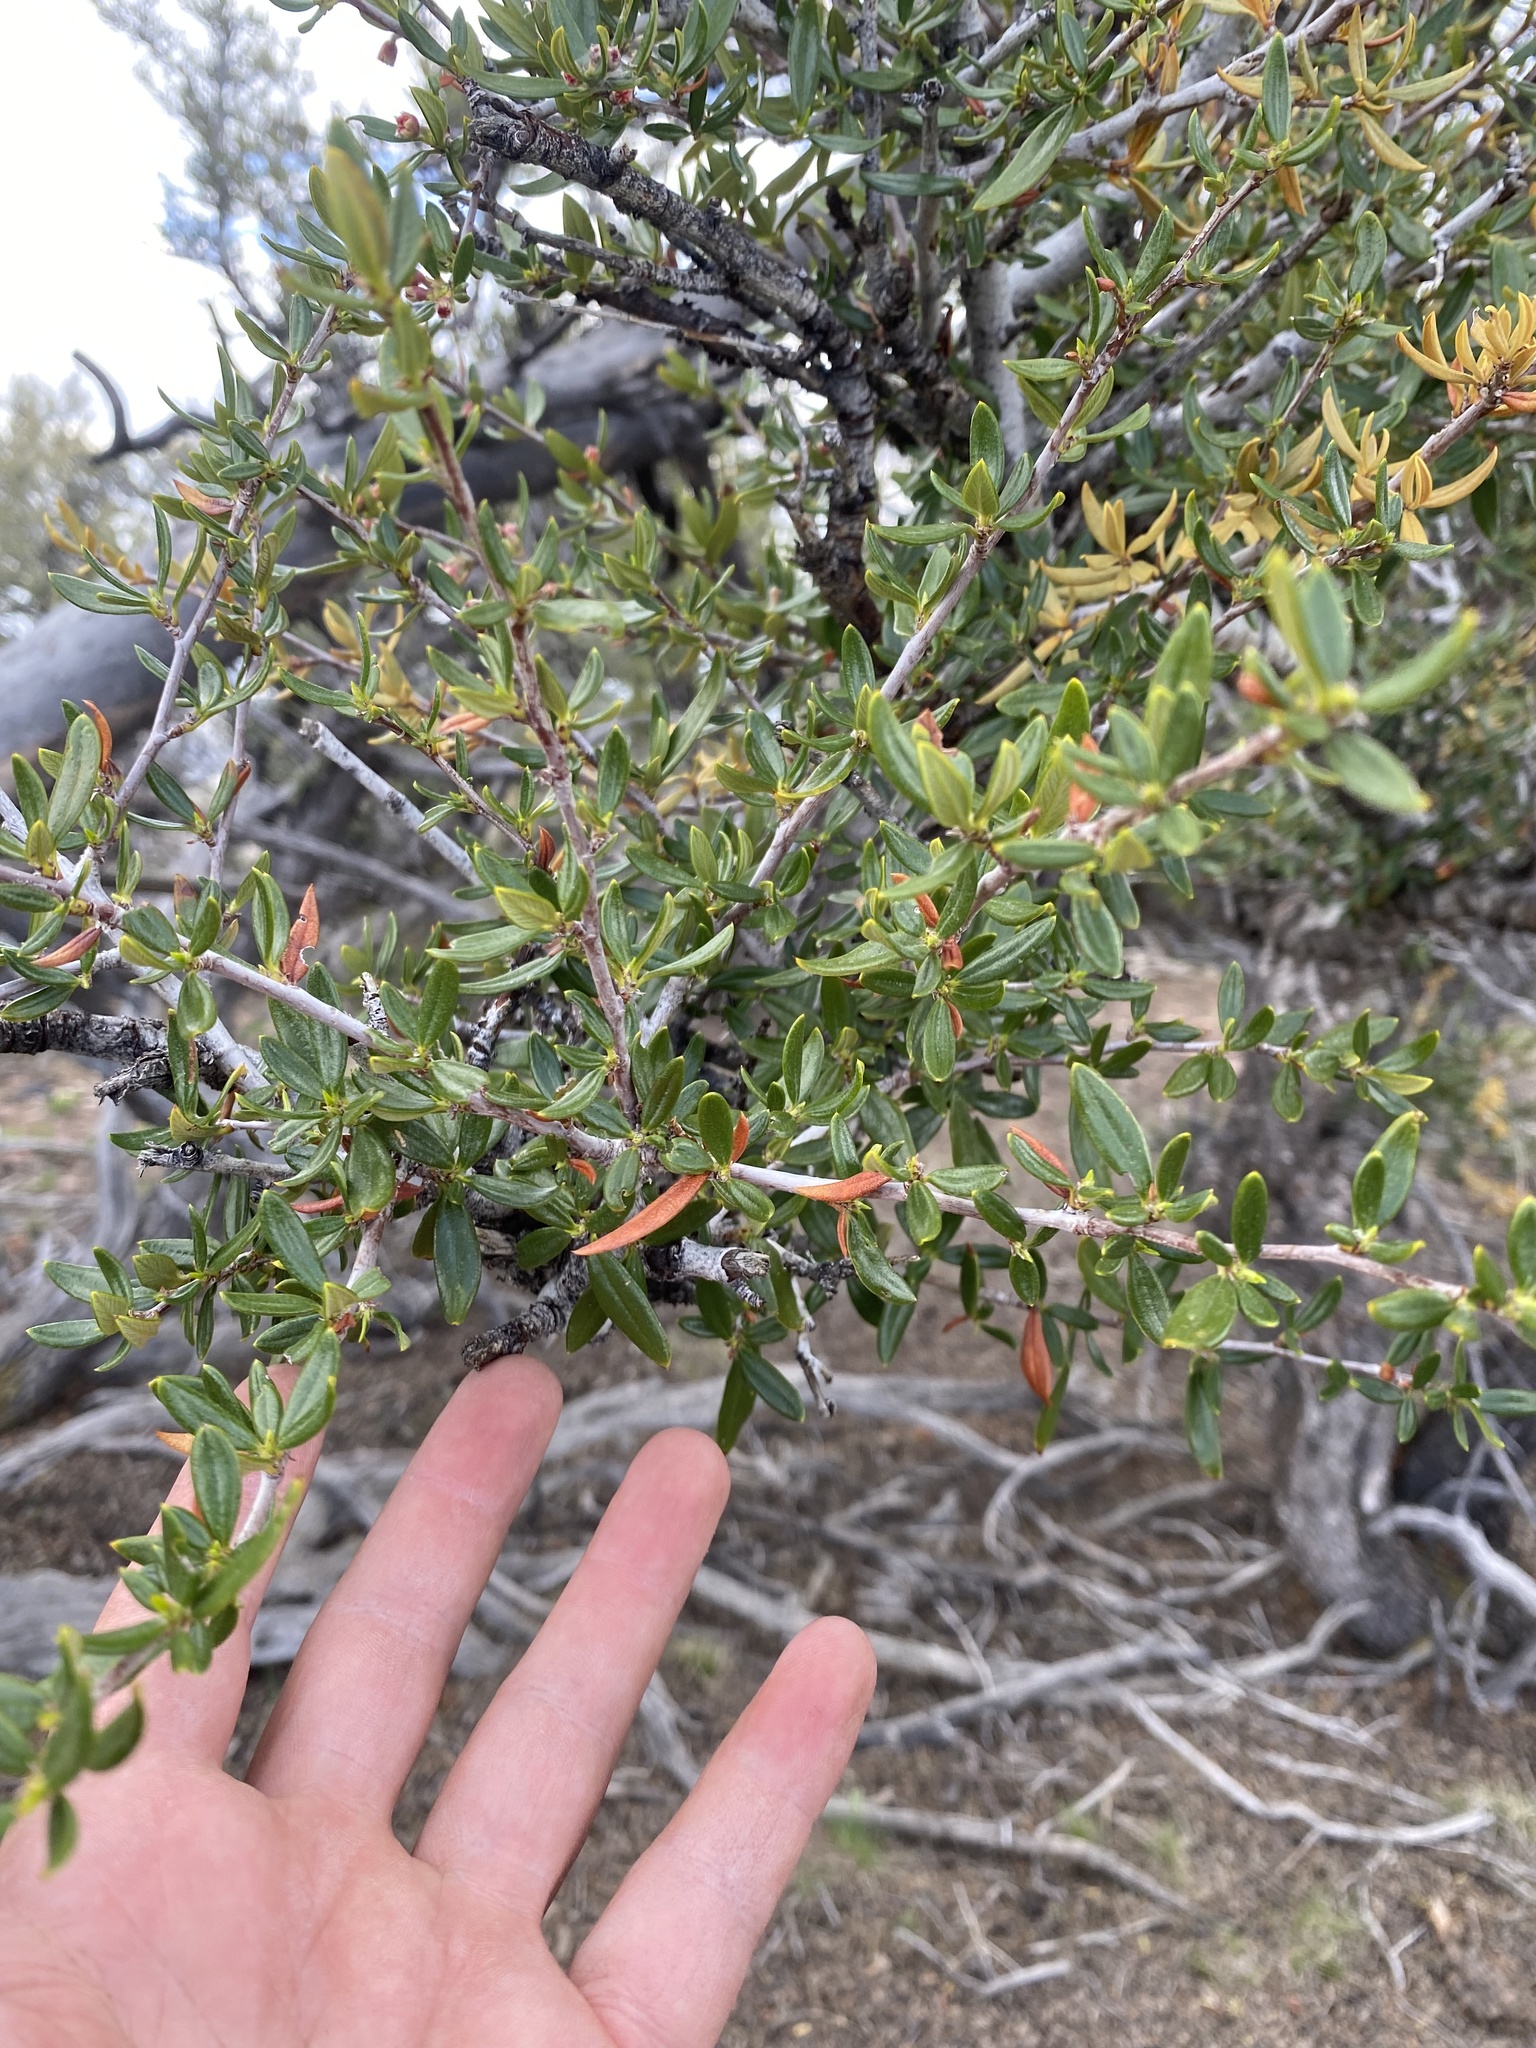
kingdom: Plantae
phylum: Tracheophyta
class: Magnoliopsida
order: Rosales
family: Rosaceae
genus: Cercocarpus
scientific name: Cercocarpus ledifolius
